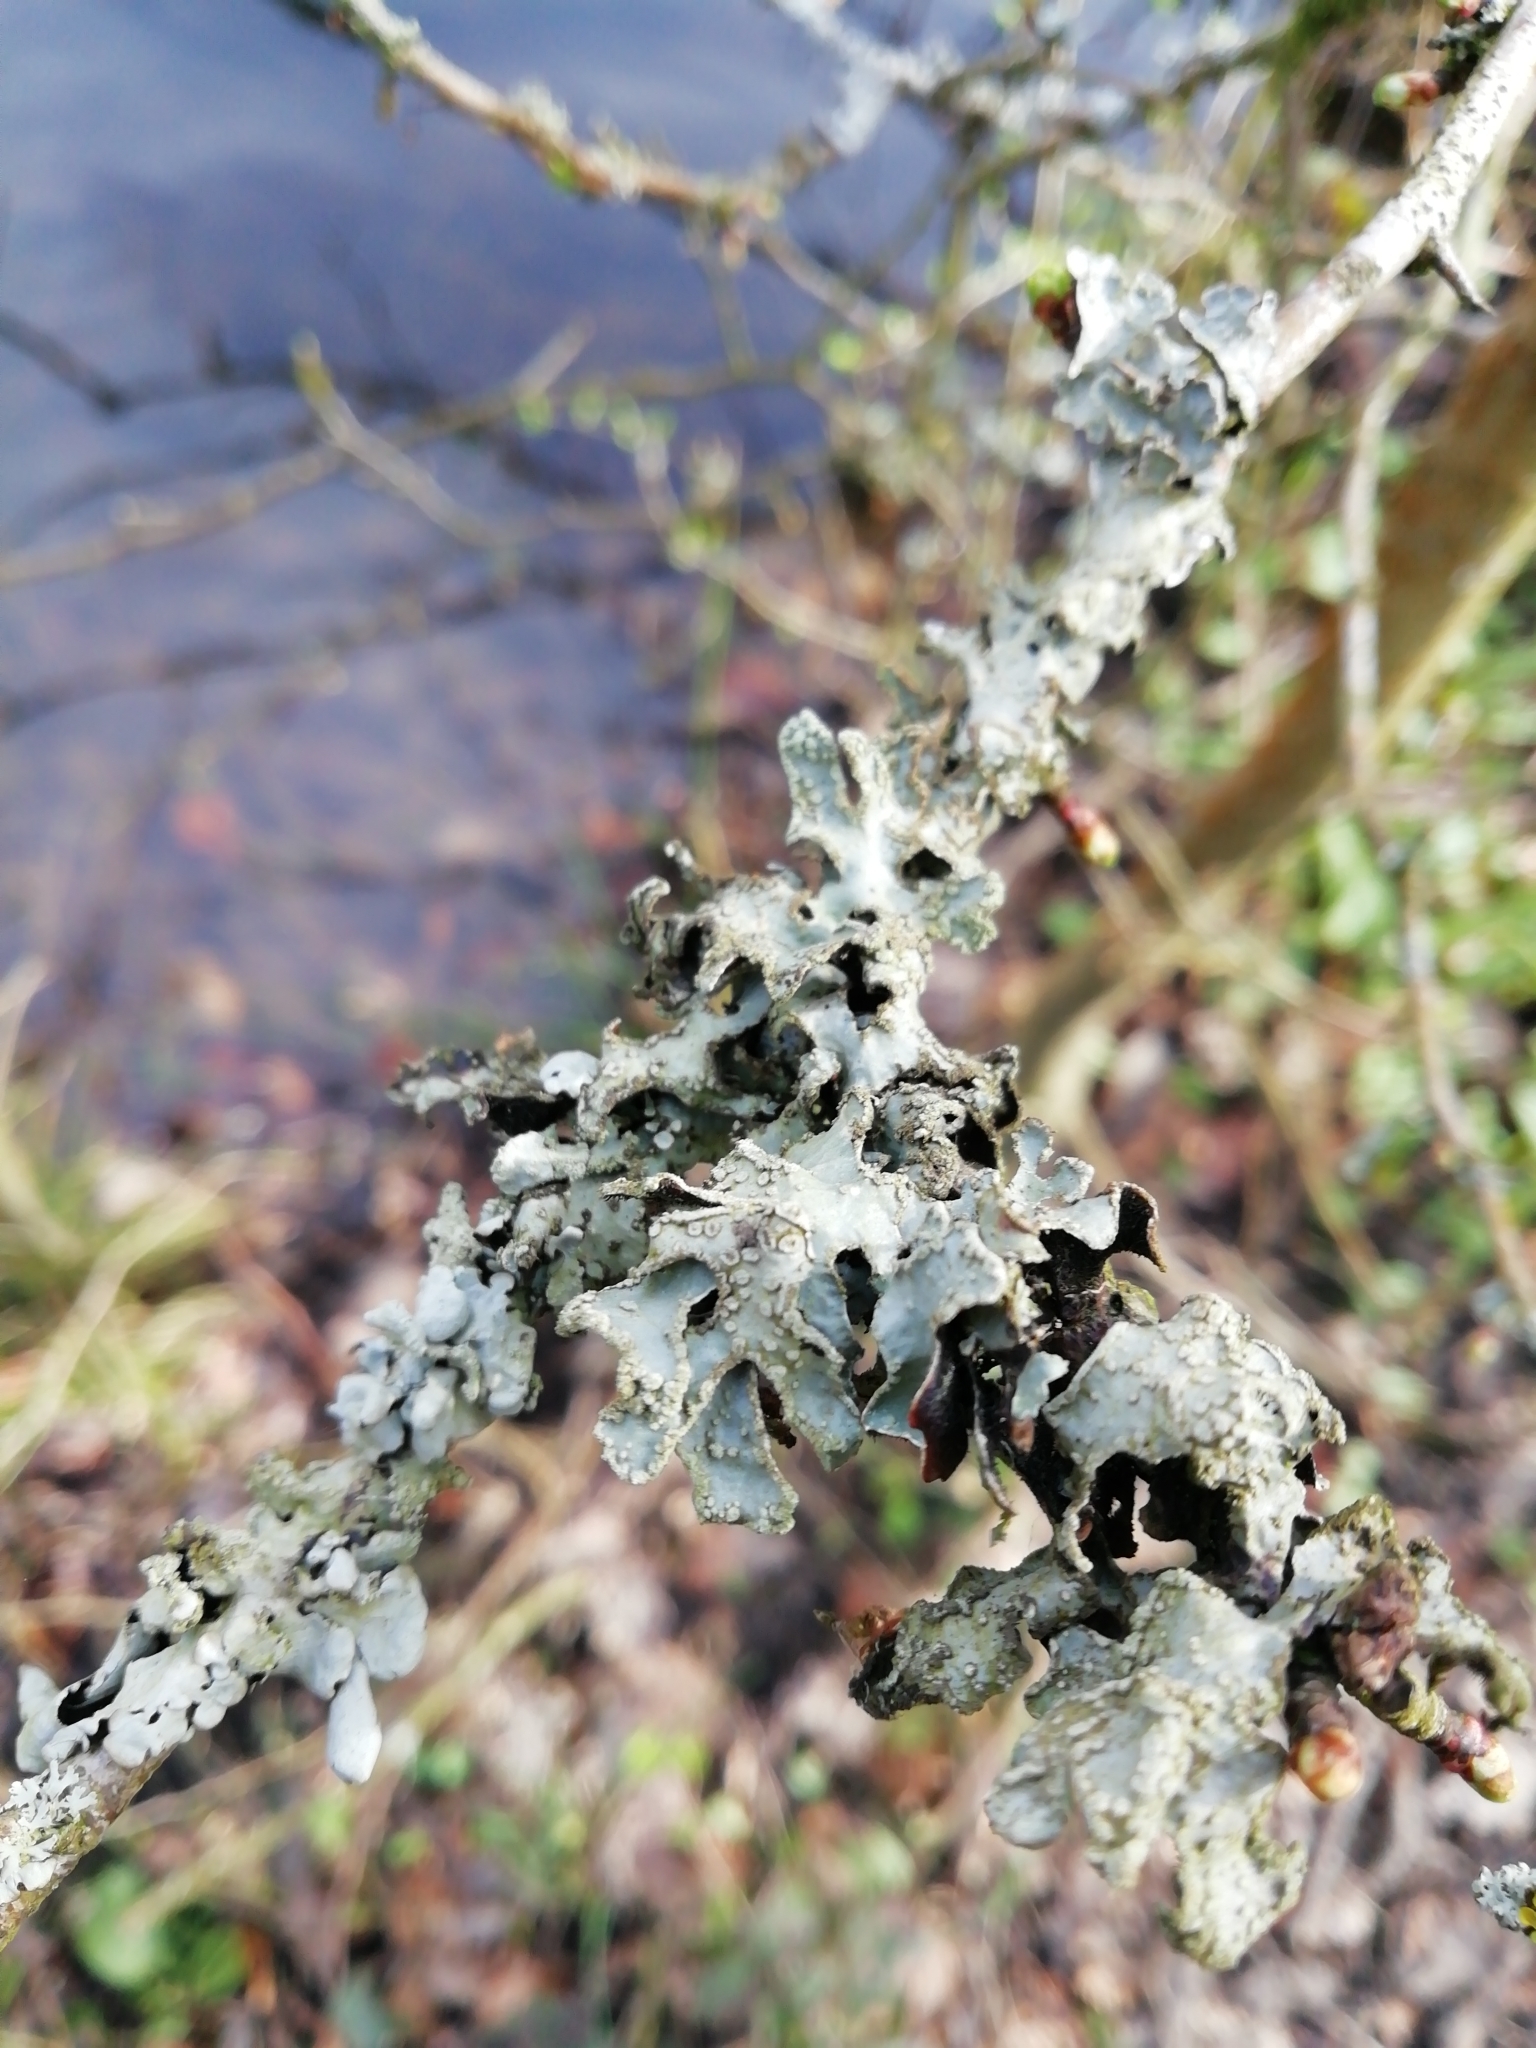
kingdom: Fungi
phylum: Ascomycota
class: Lecanoromycetes
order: Lecanorales
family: Parmeliaceae
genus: Parmelia
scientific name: Parmelia sulcata
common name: Netted shield lichen
